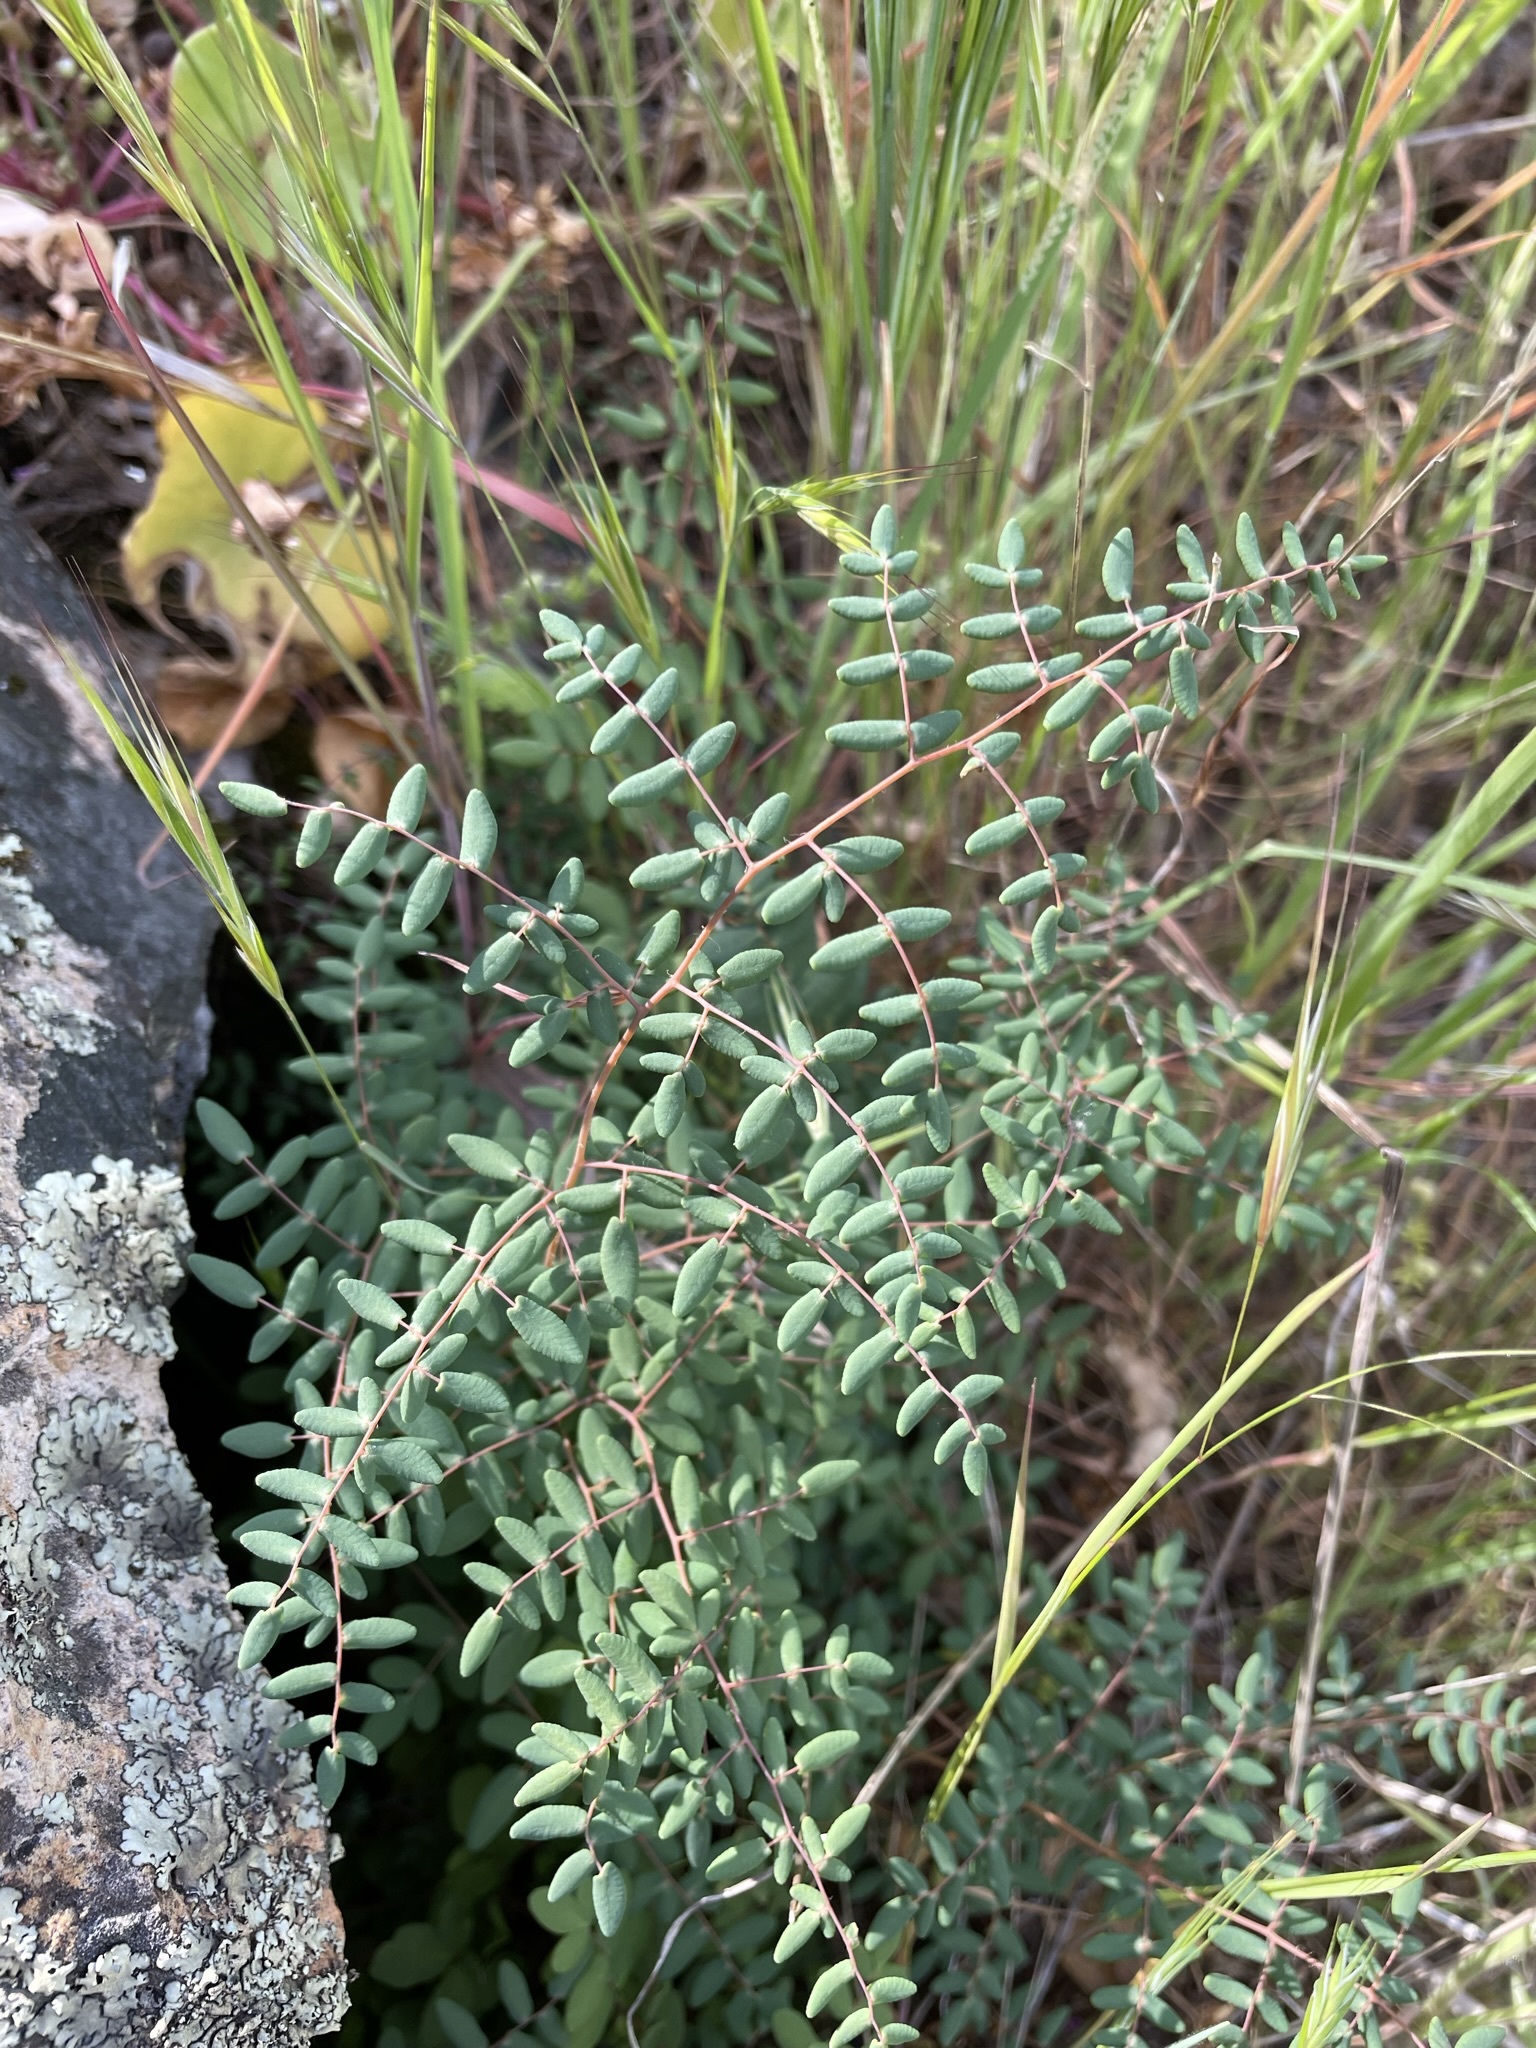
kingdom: Plantae
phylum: Tracheophyta
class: Polypodiopsida
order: Polypodiales
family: Pteridaceae
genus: Pellaea
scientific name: Pellaea andromedifolia
